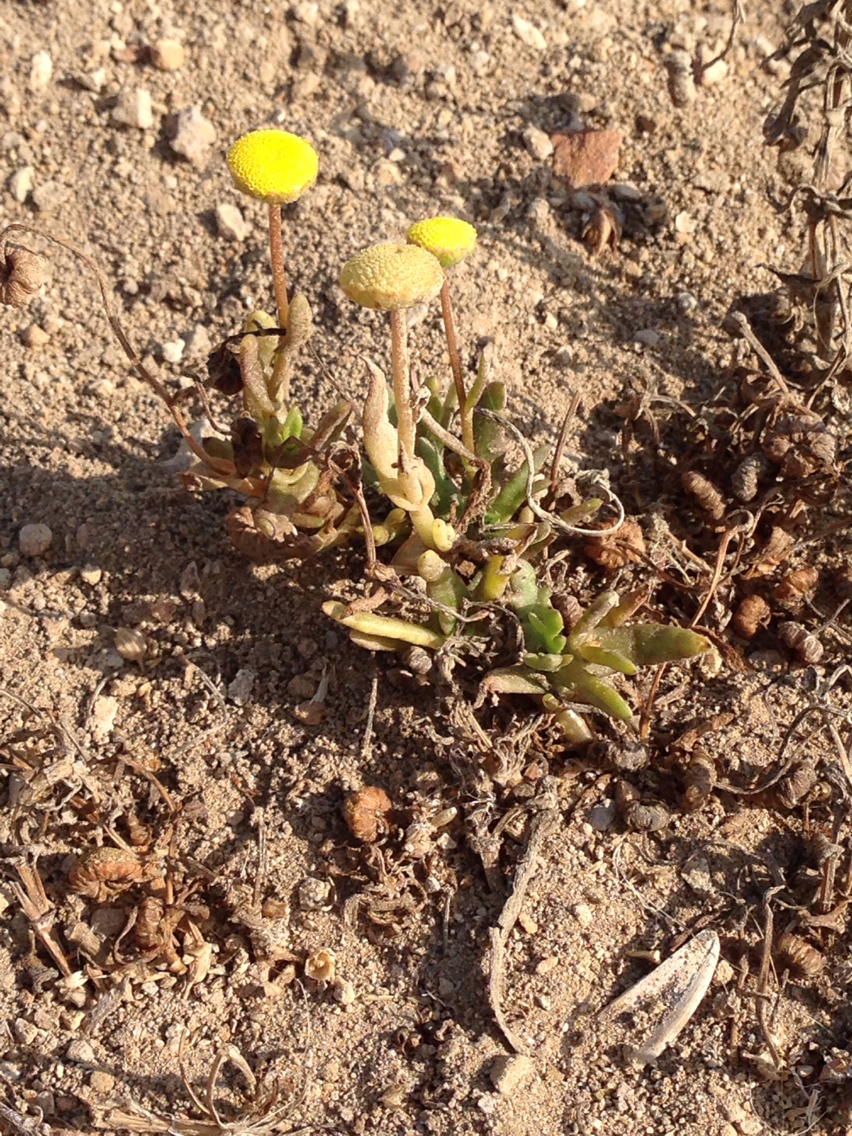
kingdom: Plantae
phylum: Tracheophyta
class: Magnoliopsida
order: Asterales
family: Asteraceae
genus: Cotula
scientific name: Cotula coronopifolia
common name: Buttonweed
